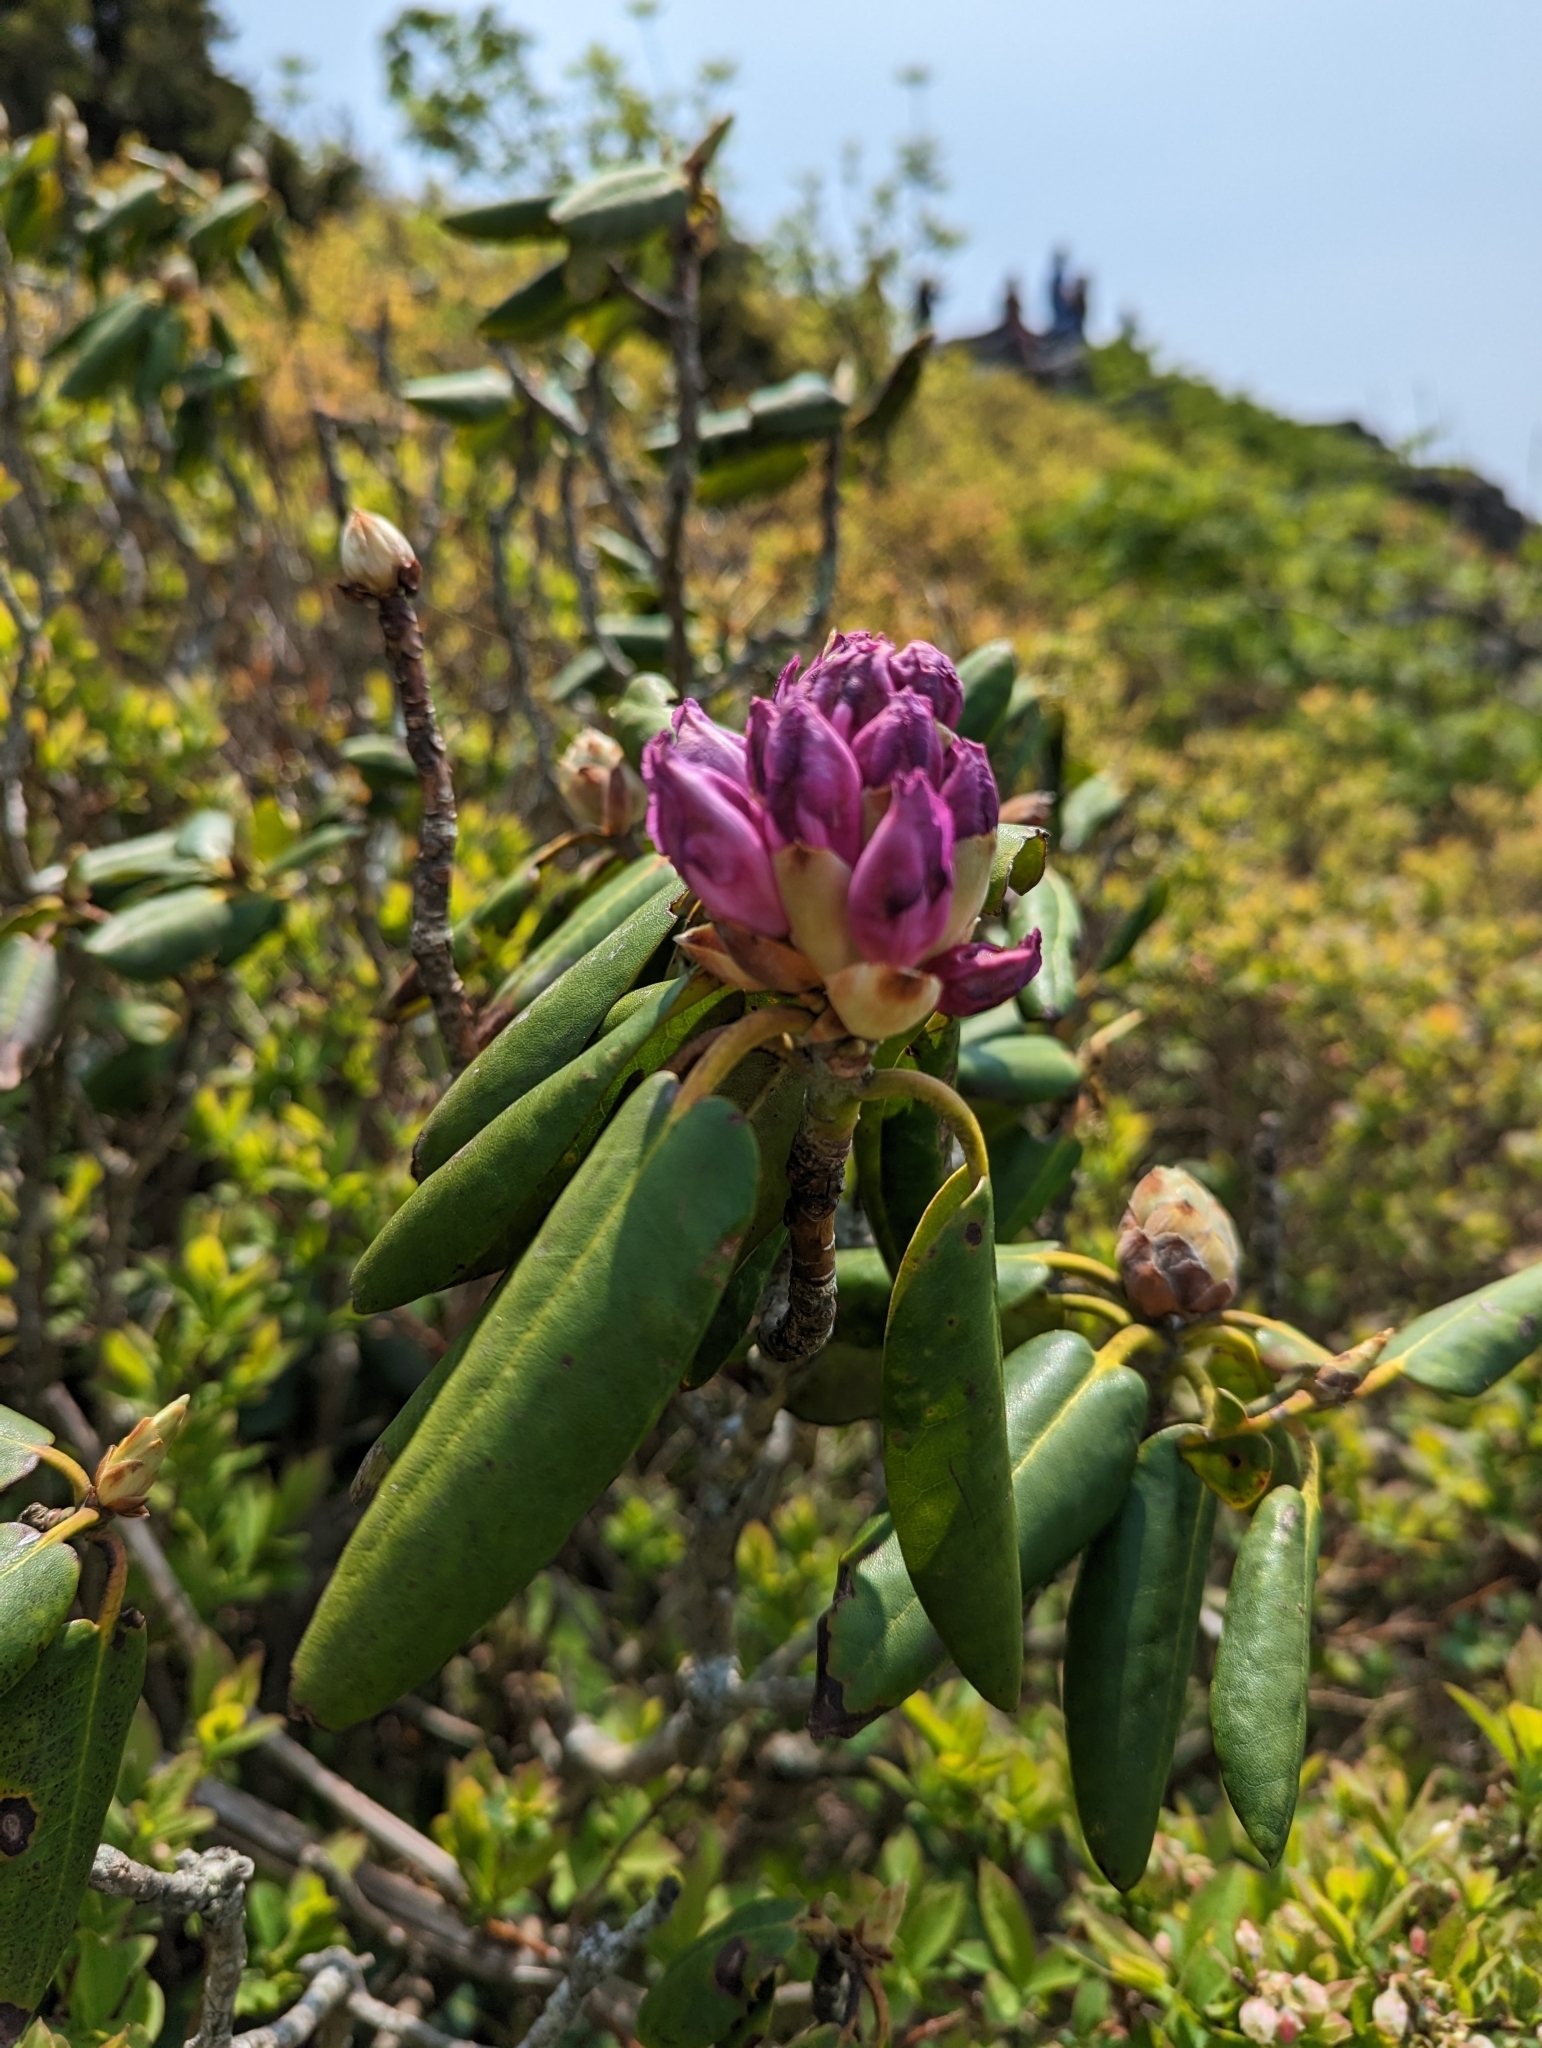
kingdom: Plantae
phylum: Tracheophyta
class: Magnoliopsida
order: Ericales
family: Ericaceae
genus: Rhododendron
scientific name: Rhododendron catawbiense
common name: Catawba rhododendron
